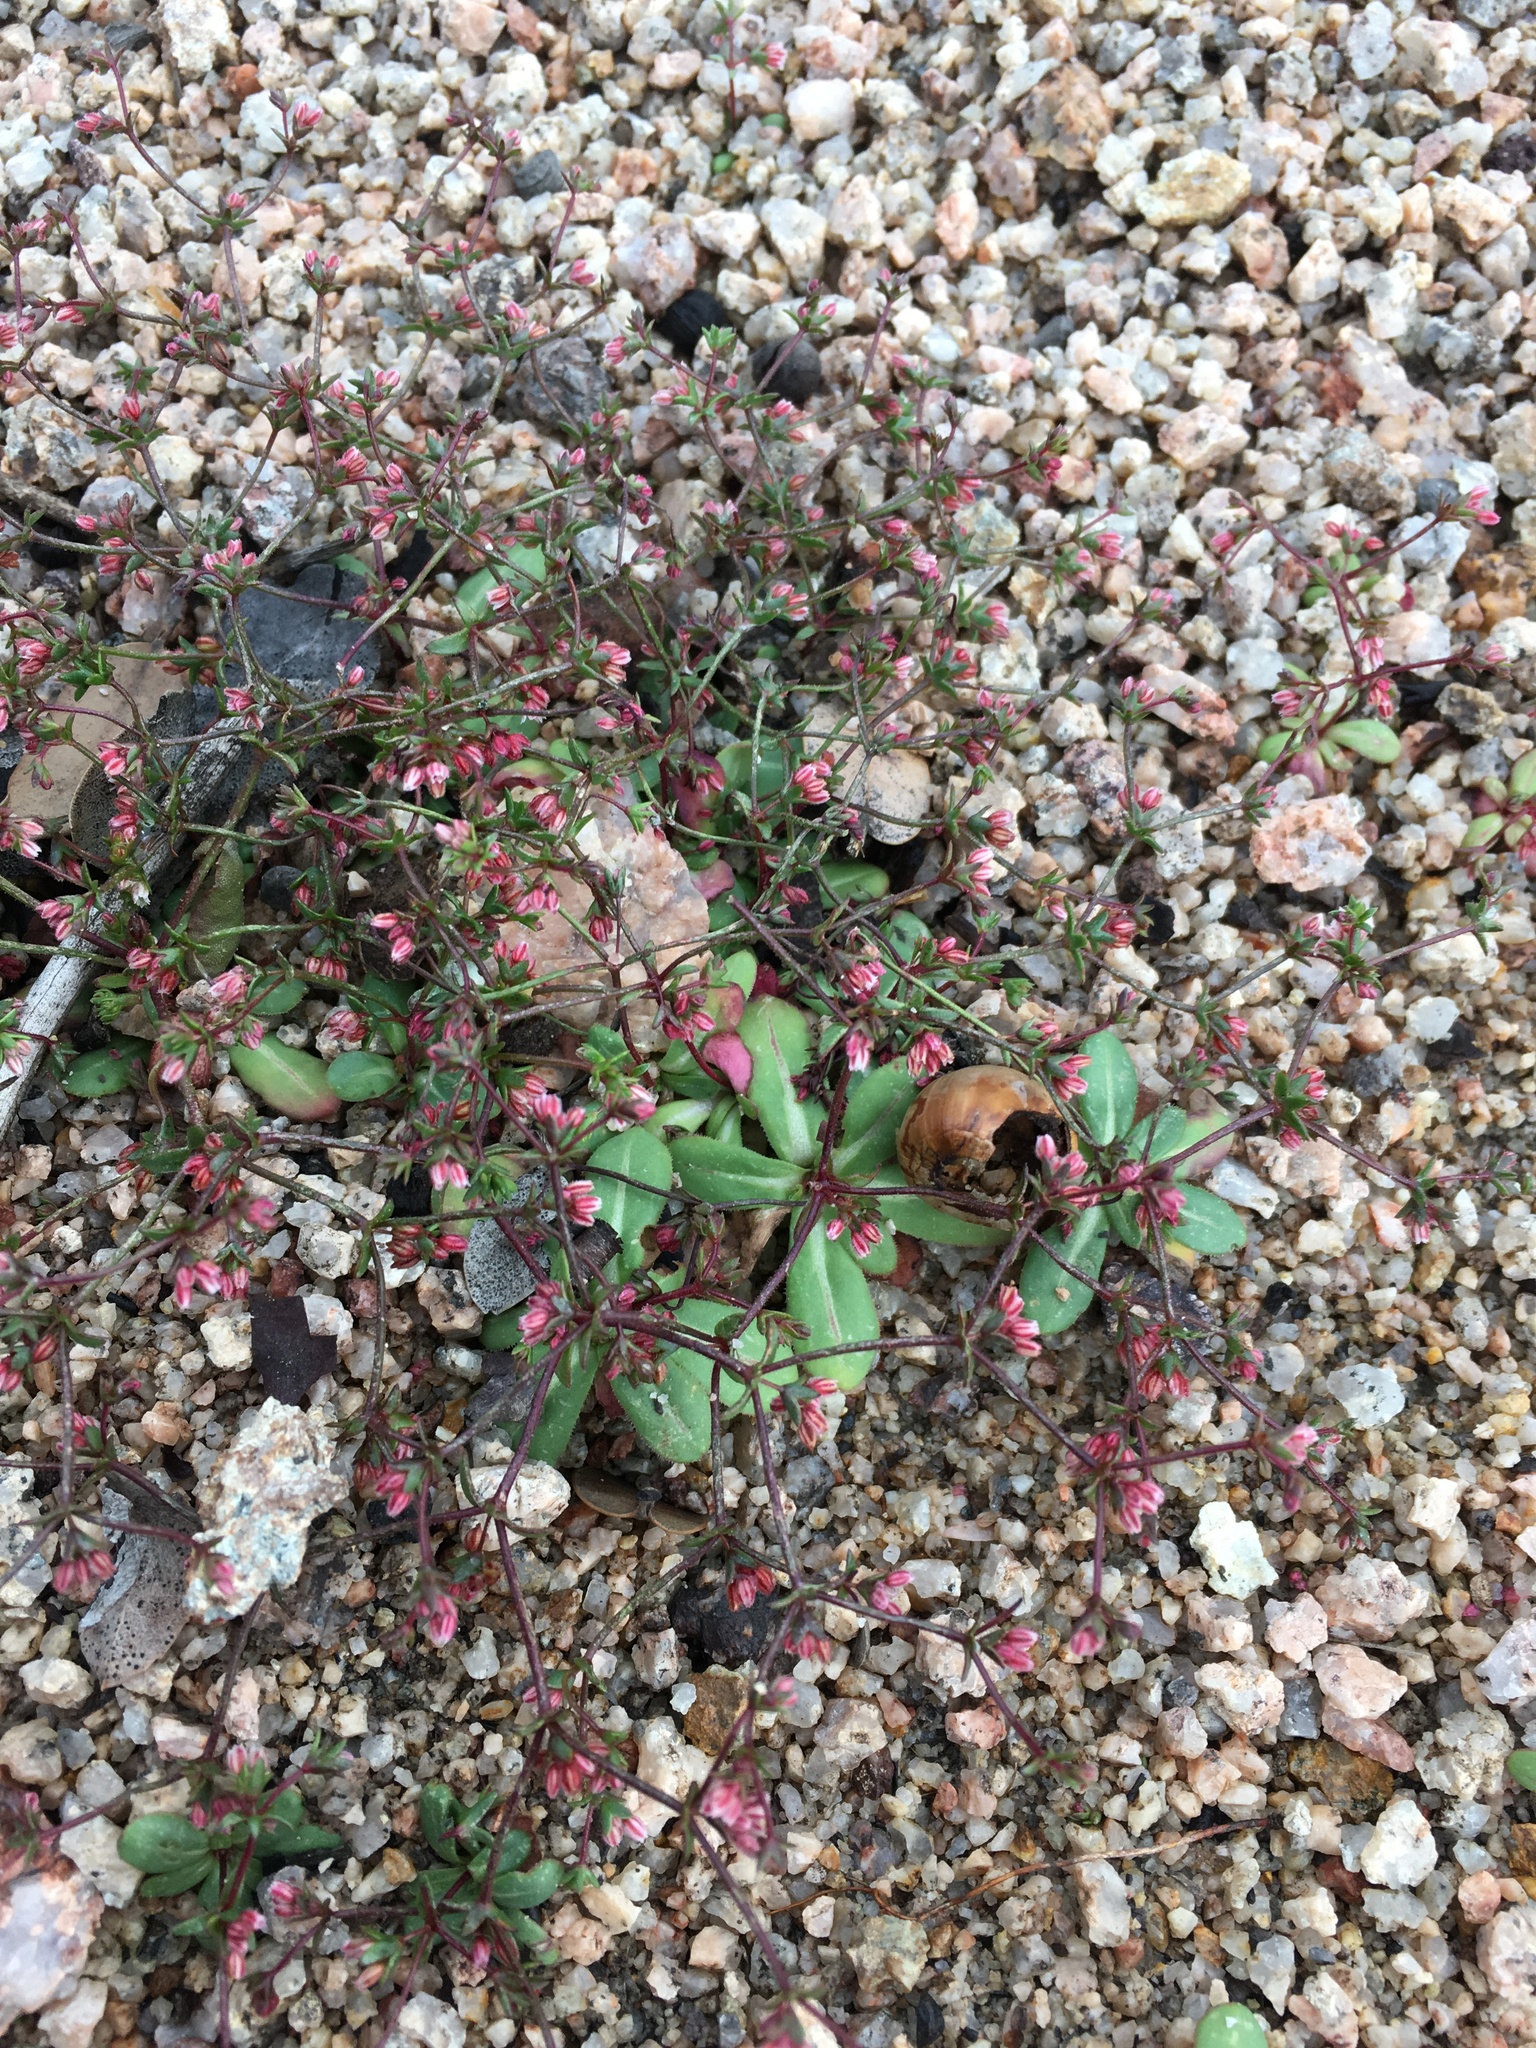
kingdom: Plantae
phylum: Tracheophyta
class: Magnoliopsida
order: Caryophyllales
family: Polygonaceae
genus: Eriogonum
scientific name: Eriogonum inerme
